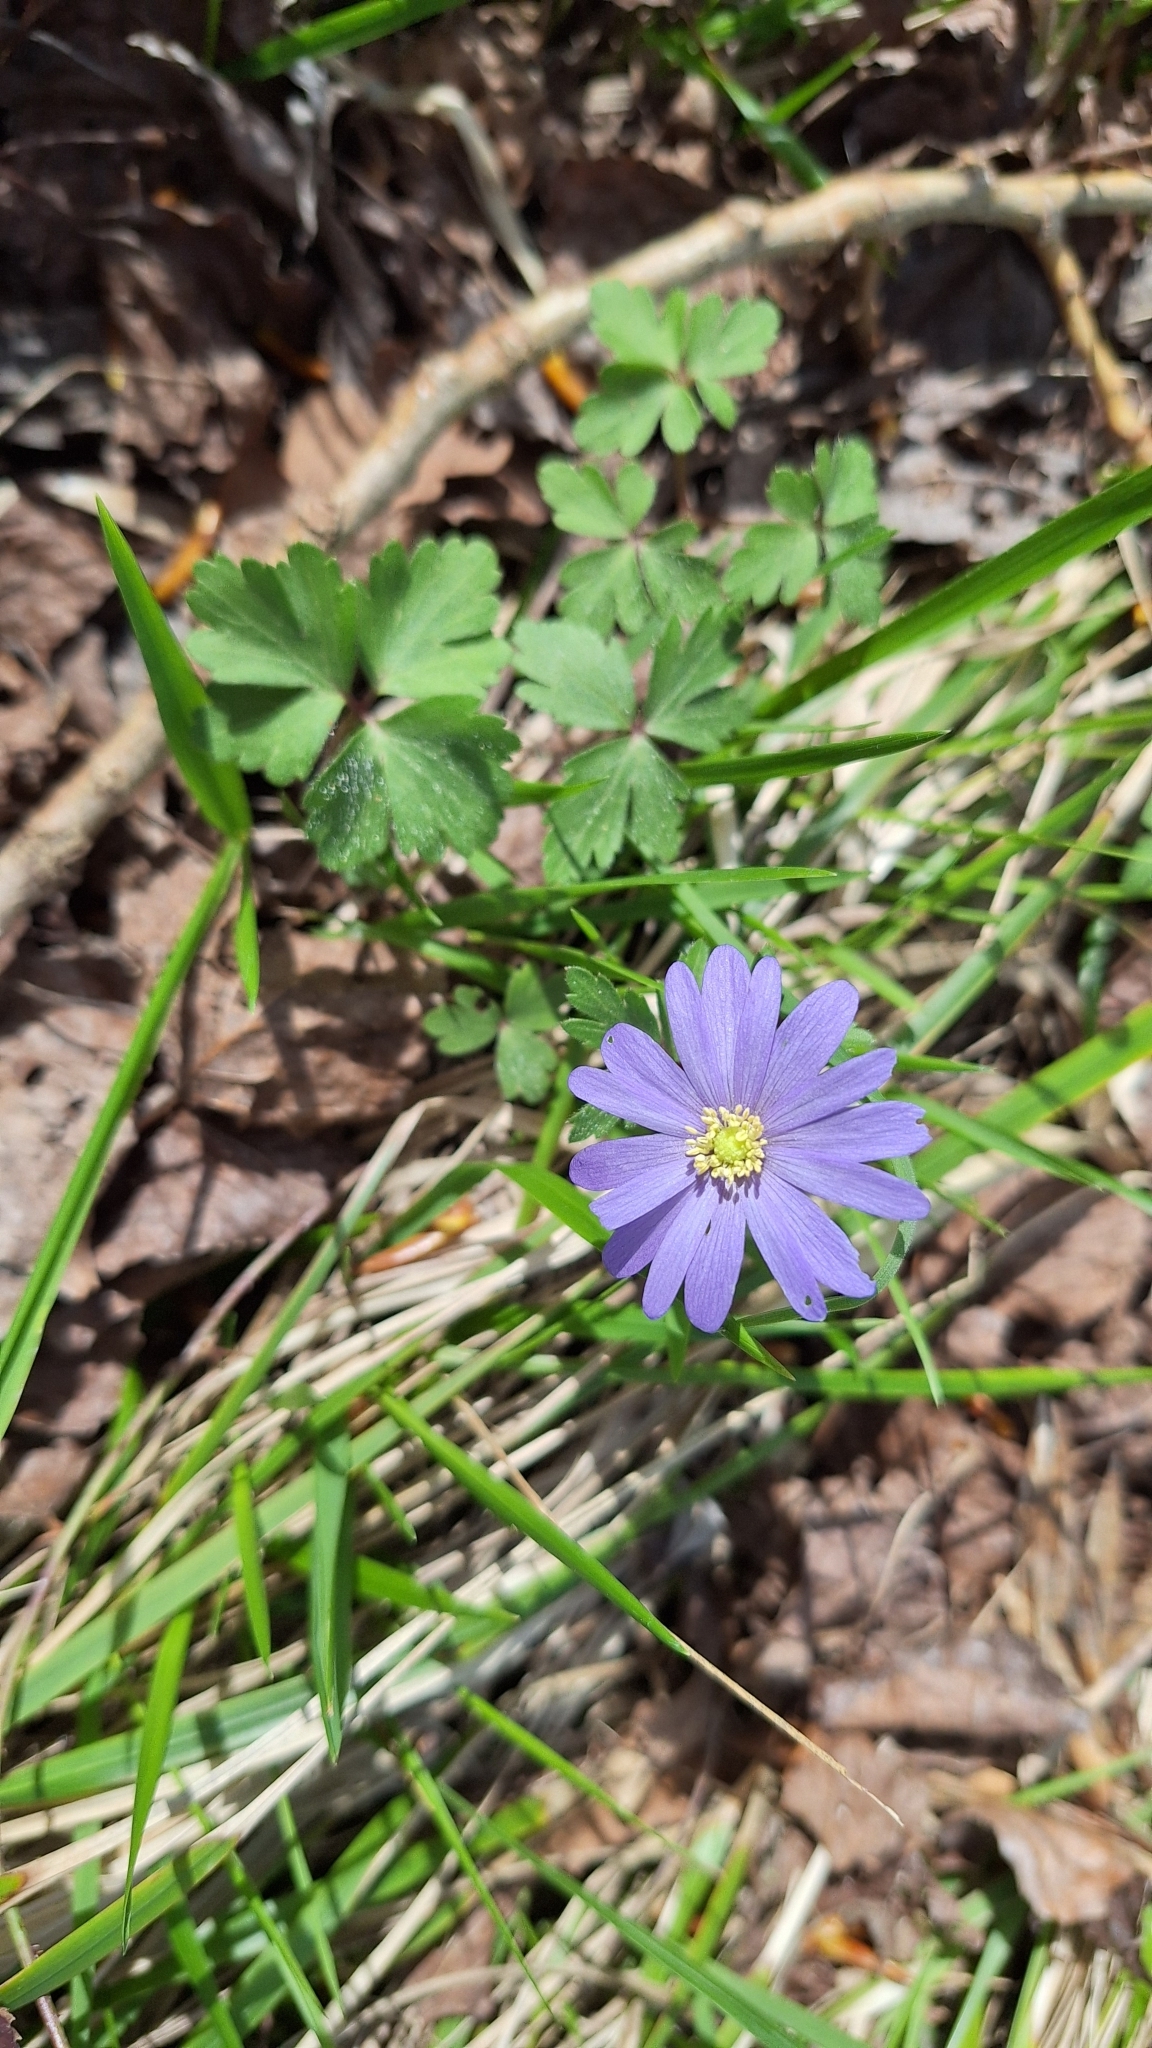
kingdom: Plantae
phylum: Tracheophyta
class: Magnoliopsida
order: Ranunculales
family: Ranunculaceae
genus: Anemone
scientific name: Anemone blanda
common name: Balkan anemone
